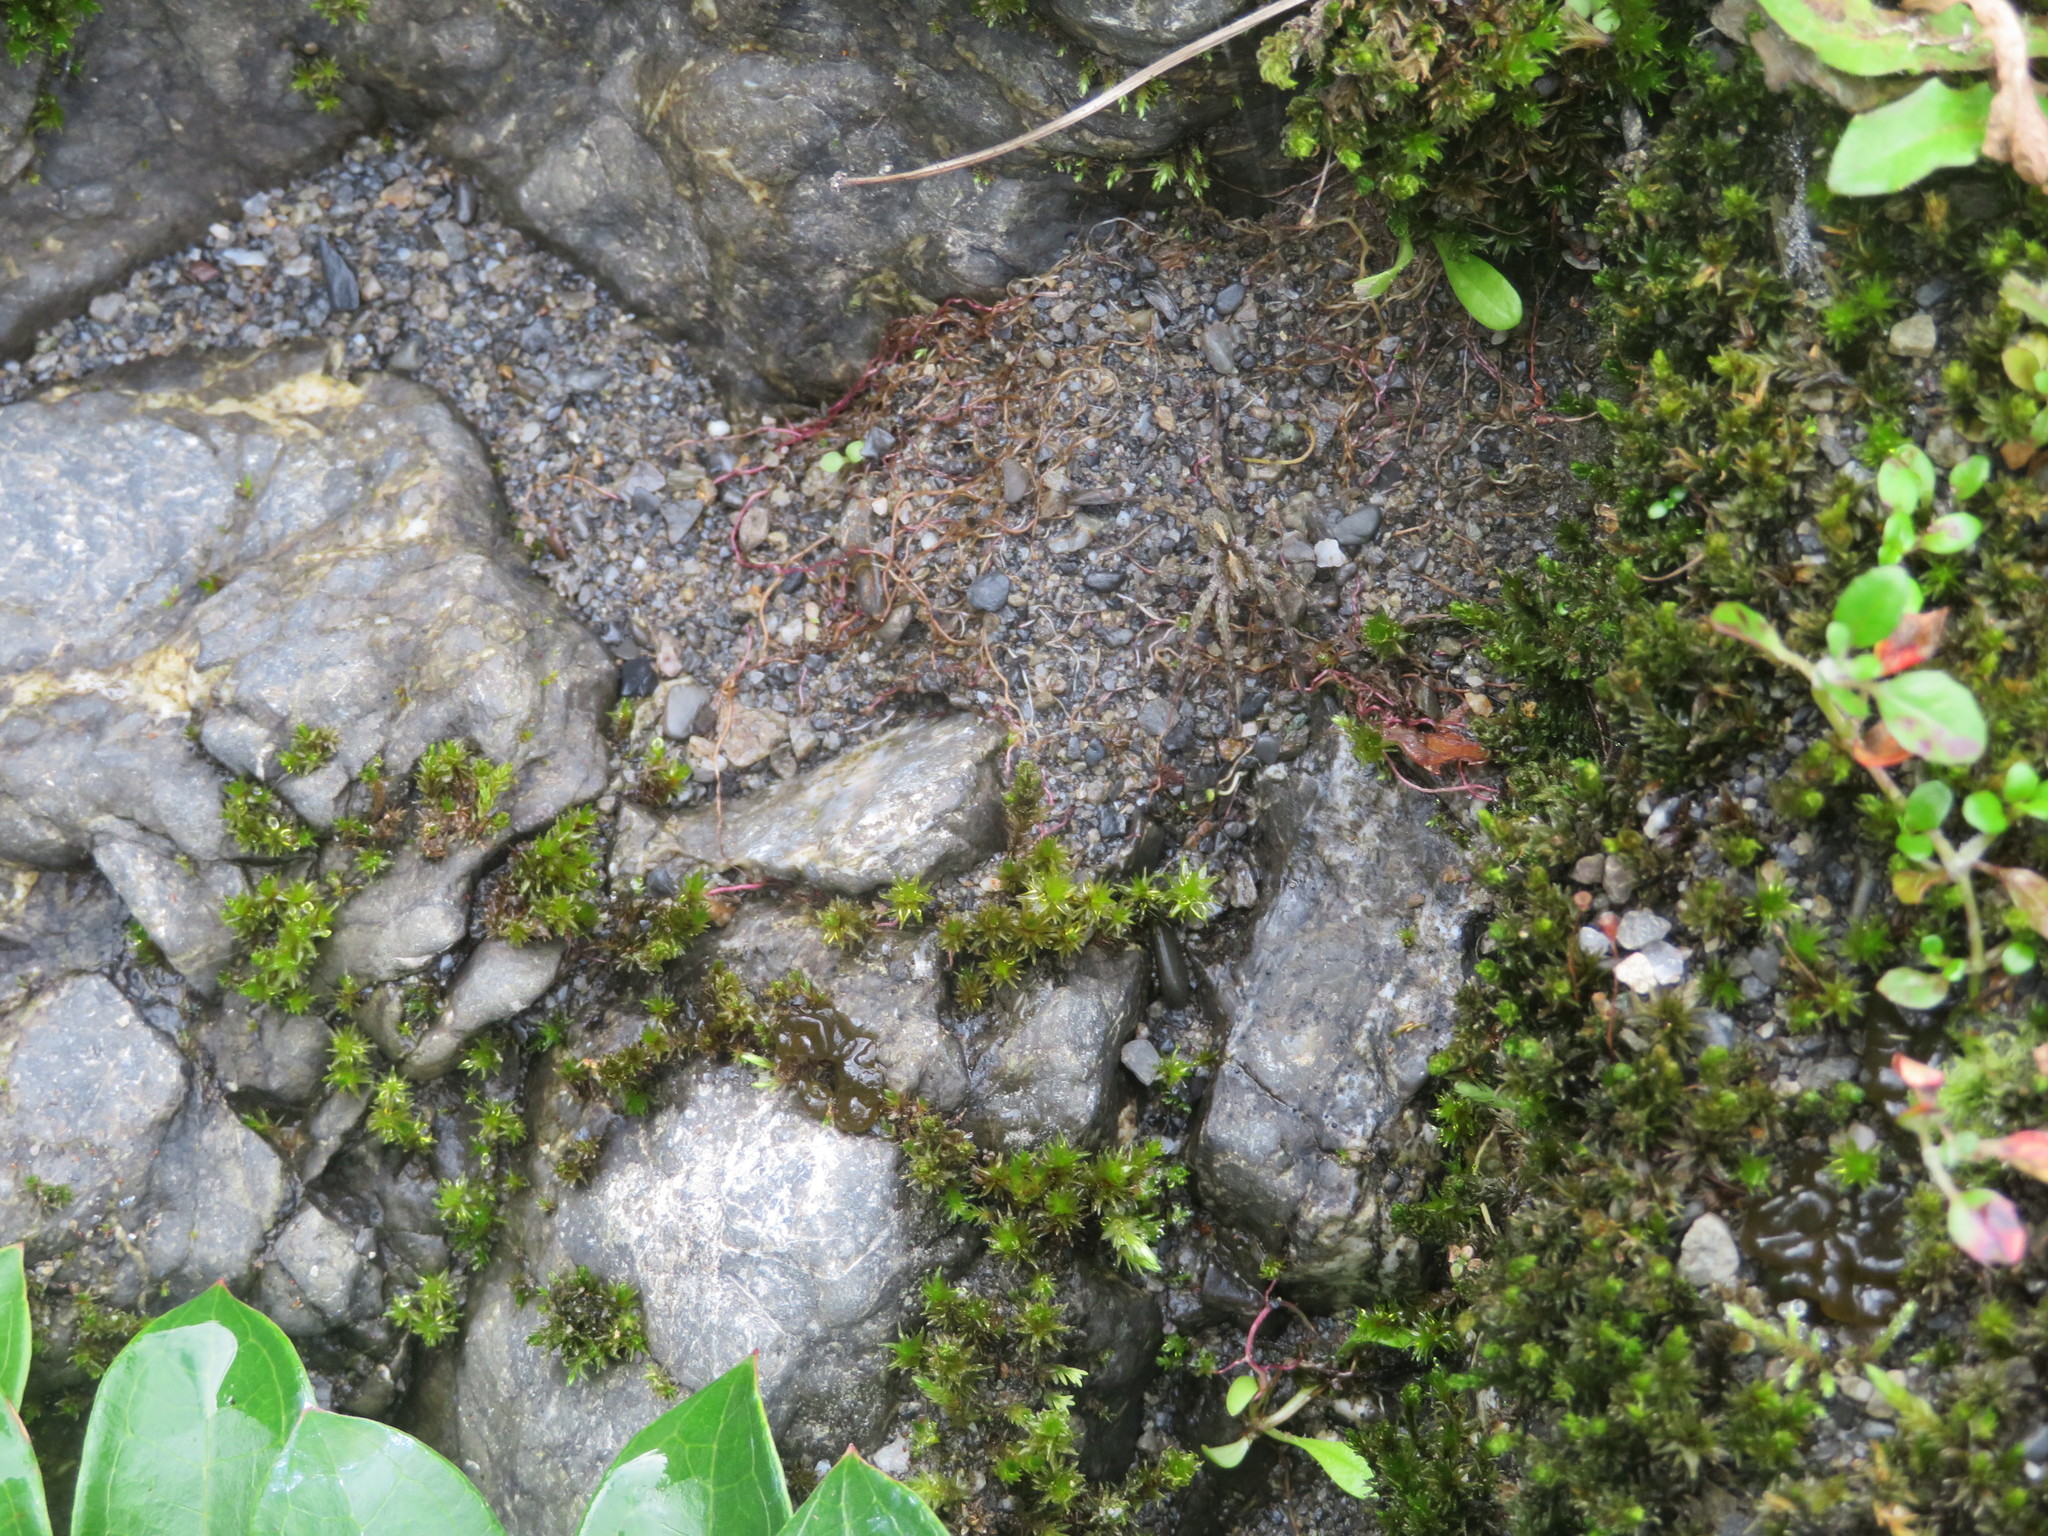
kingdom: Animalia
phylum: Arthropoda
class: Arachnida
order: Araneae
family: Pisauridae
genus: Dolomedes
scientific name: Dolomedes minor
